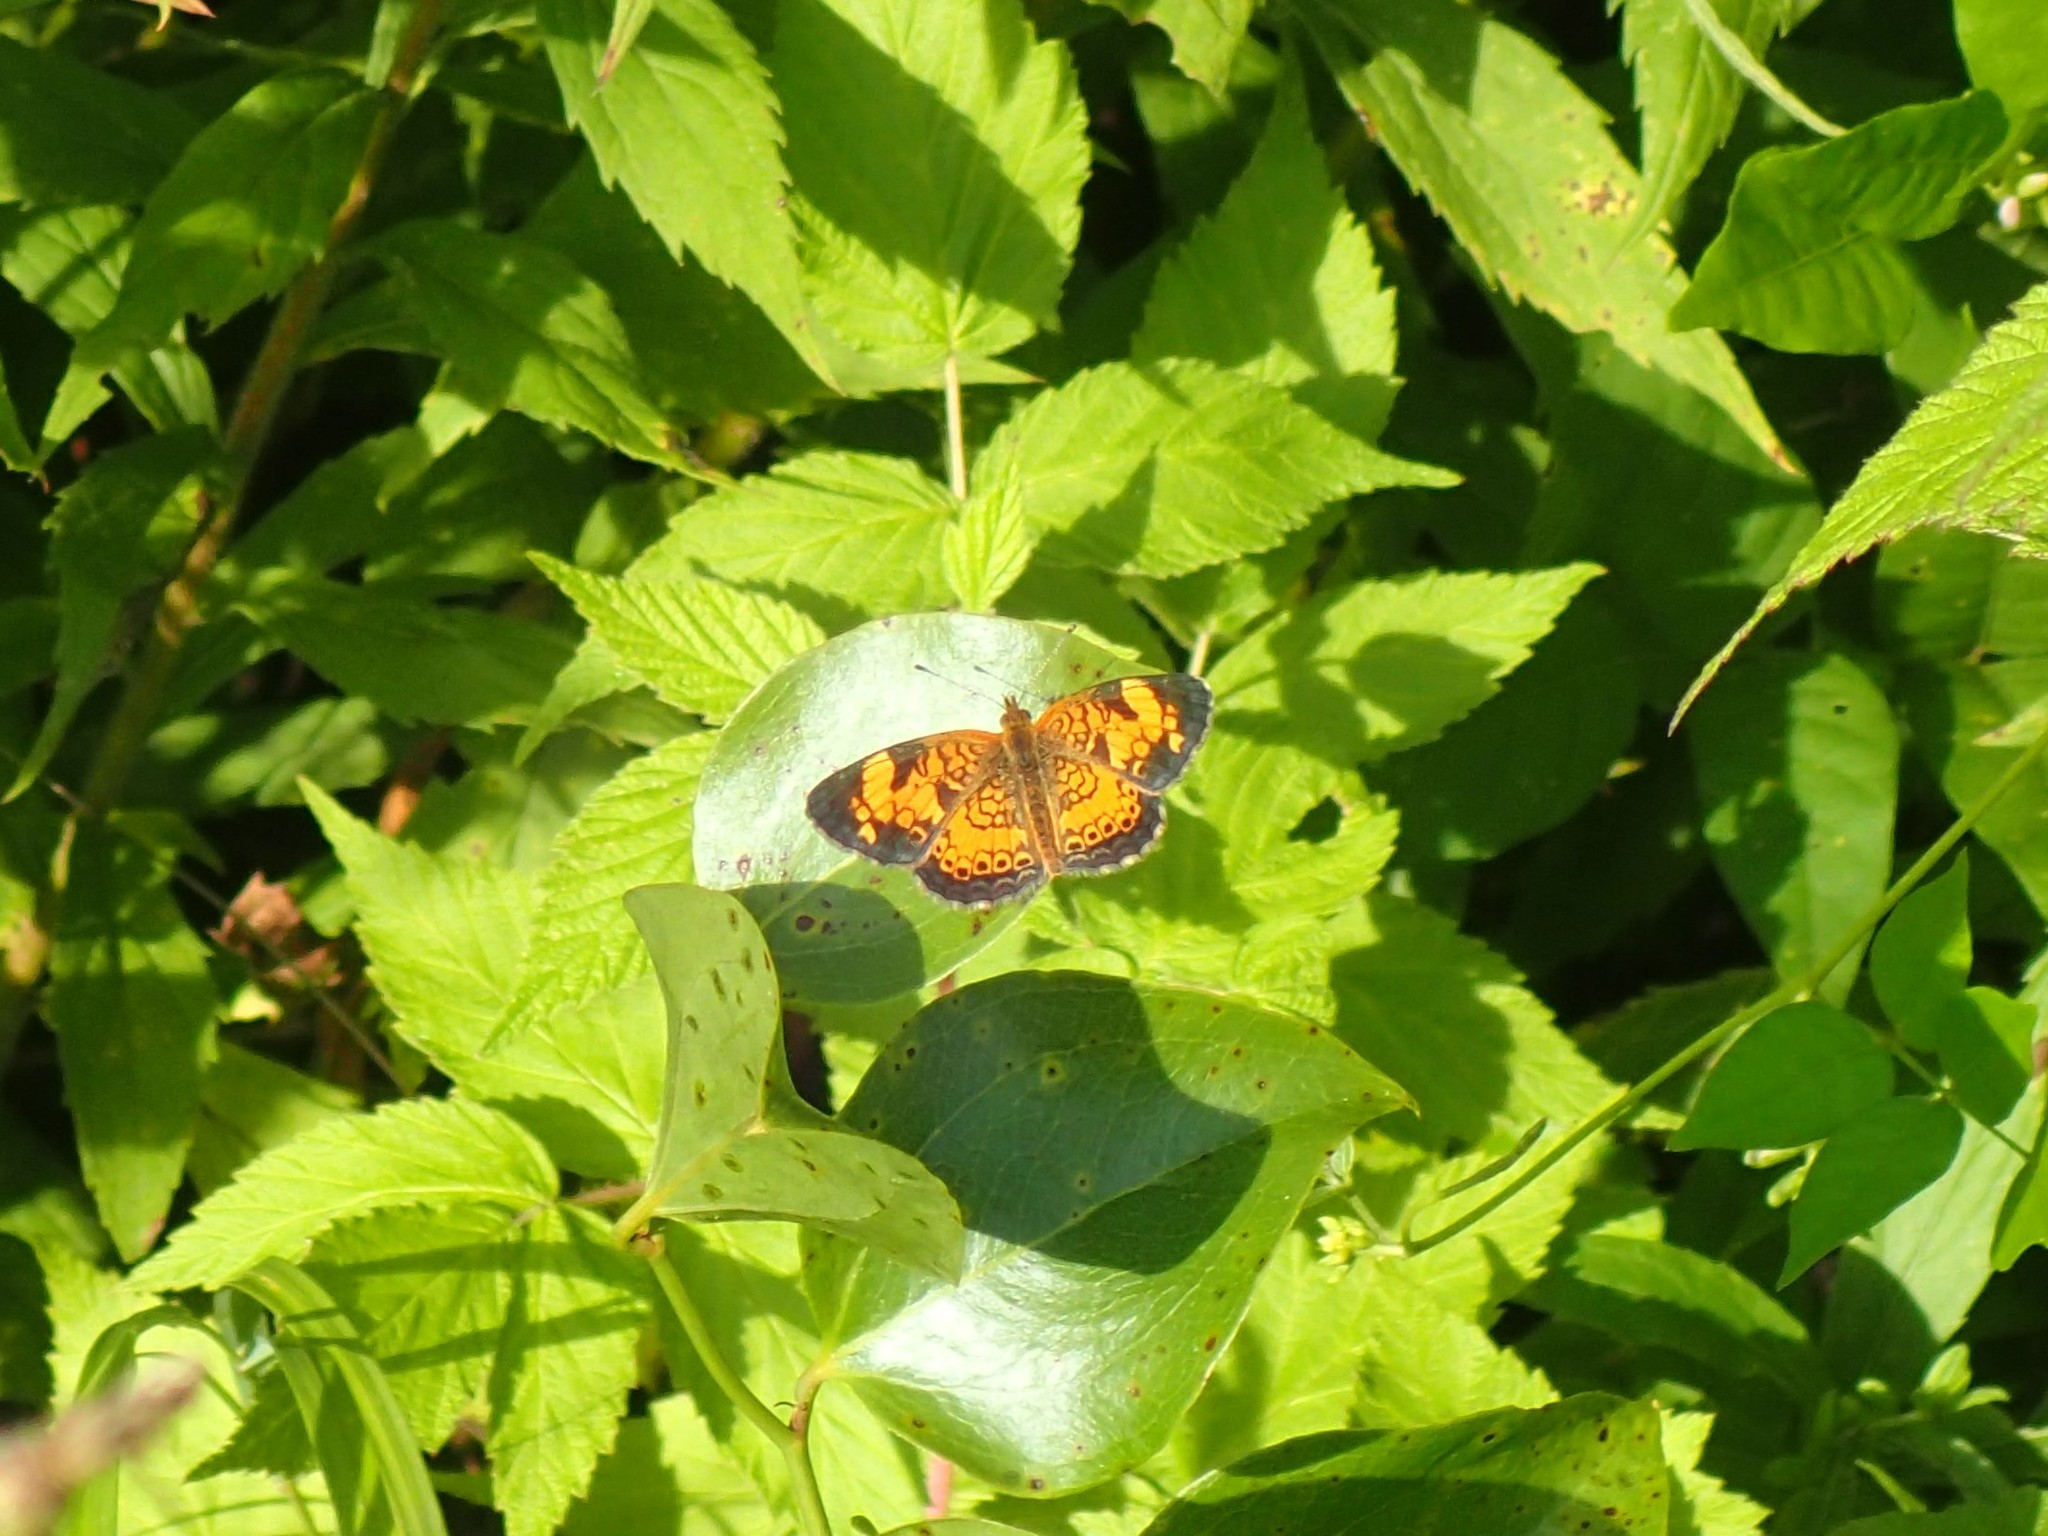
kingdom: Animalia
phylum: Arthropoda
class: Insecta
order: Lepidoptera
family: Nymphalidae
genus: Phyciodes
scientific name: Phyciodes tharos
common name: Pearl crescent
